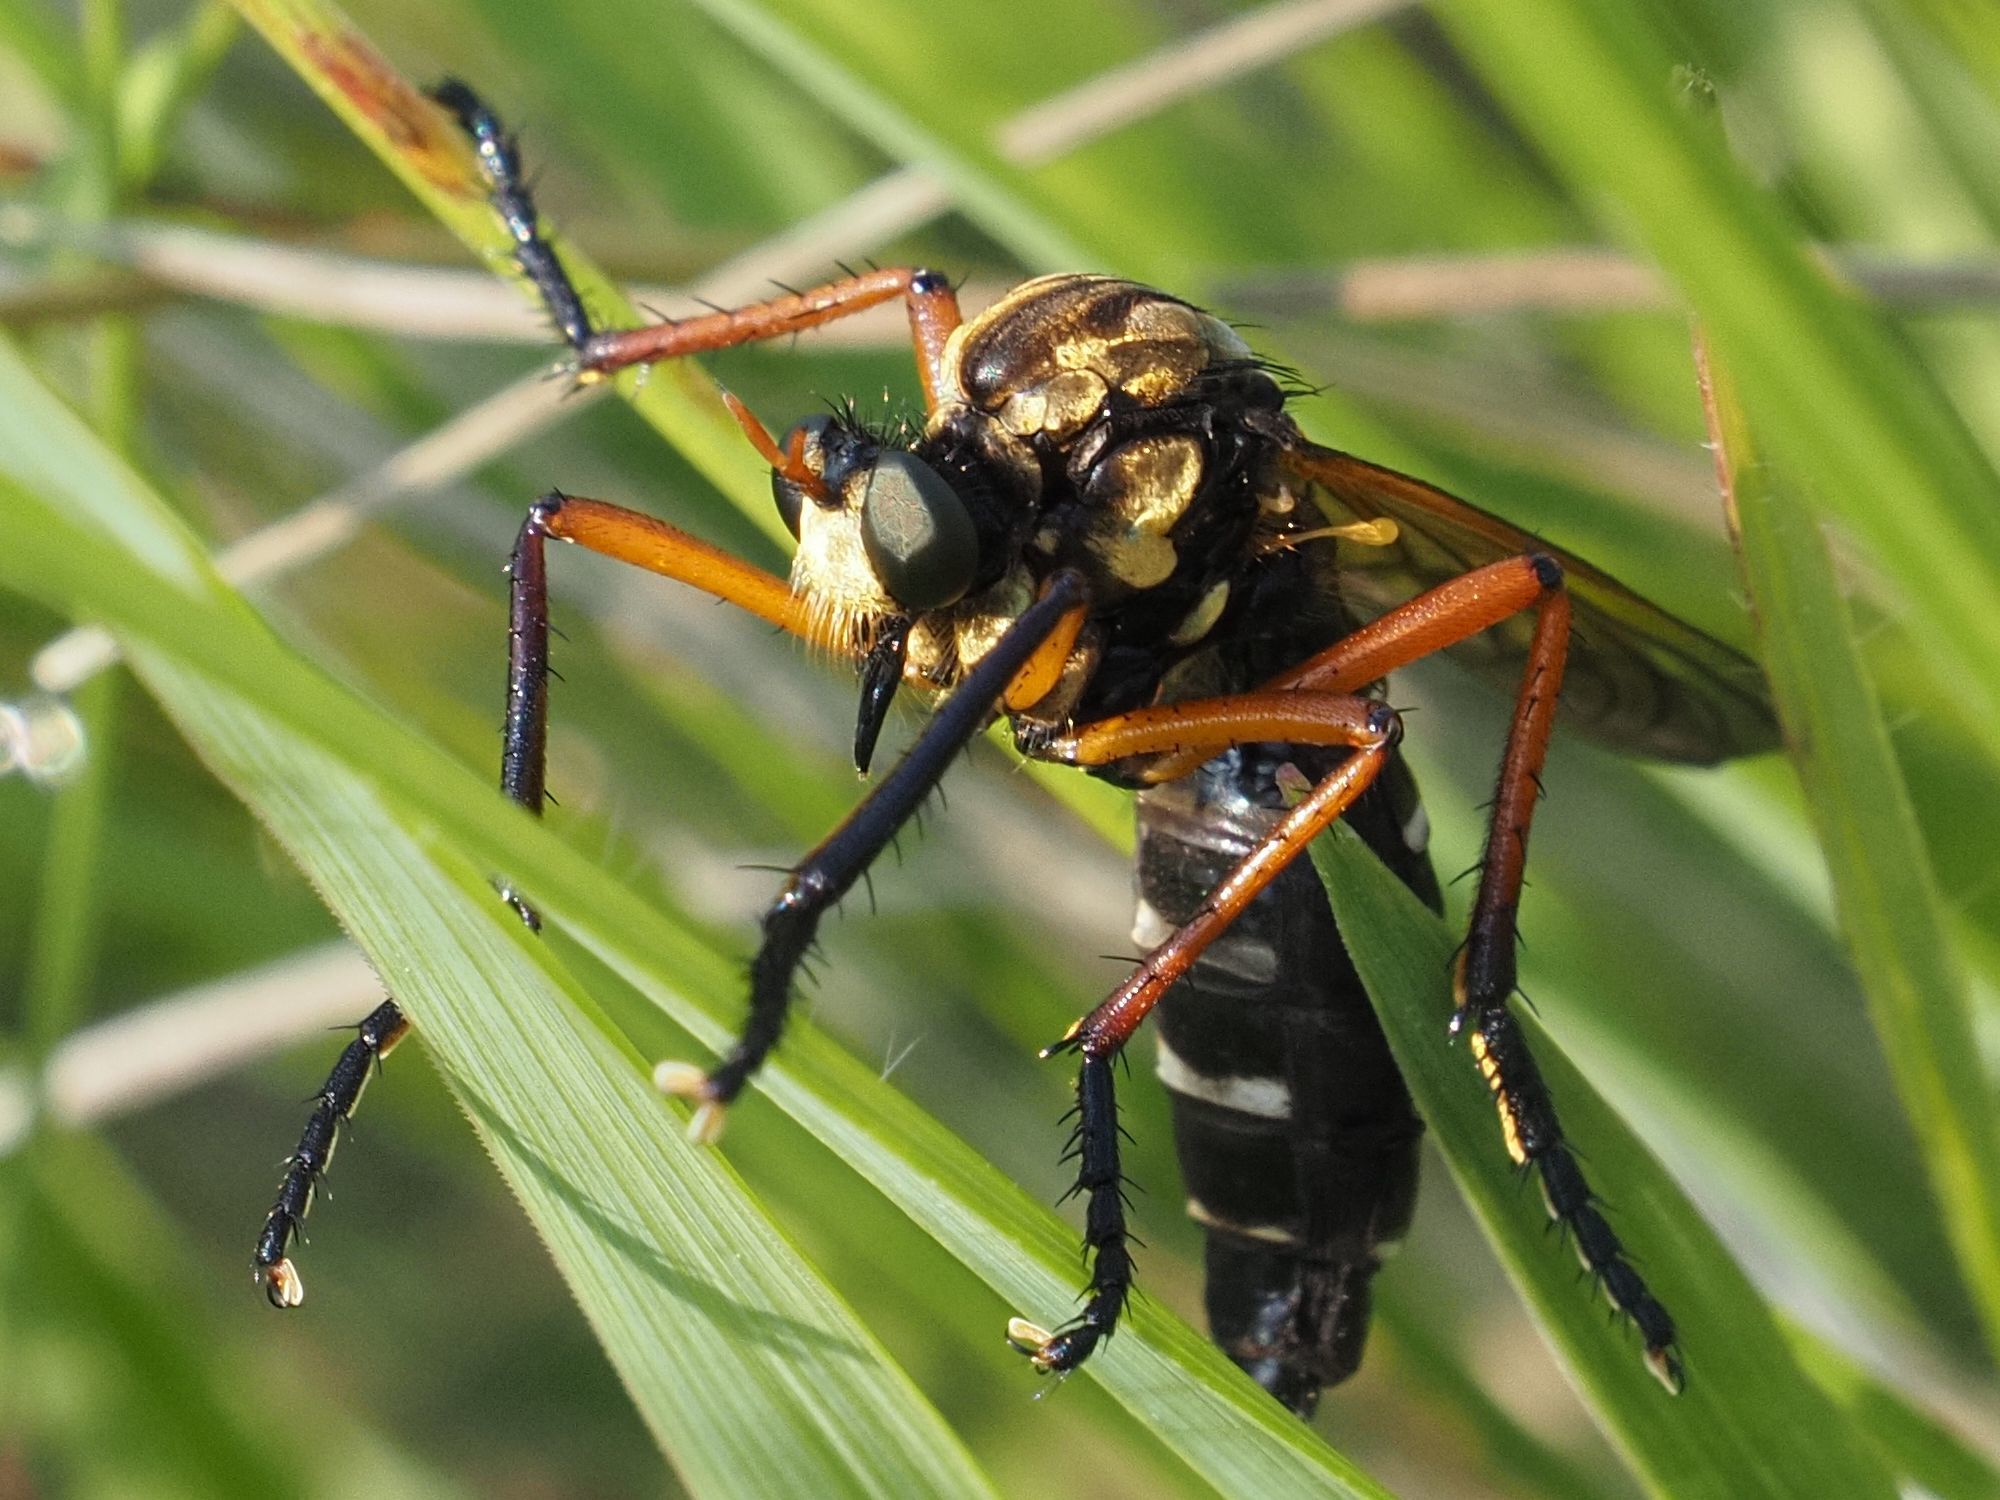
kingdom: Animalia
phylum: Arthropoda
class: Insecta
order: Diptera
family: Asilidae
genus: Molobratia
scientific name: Molobratia teutona
